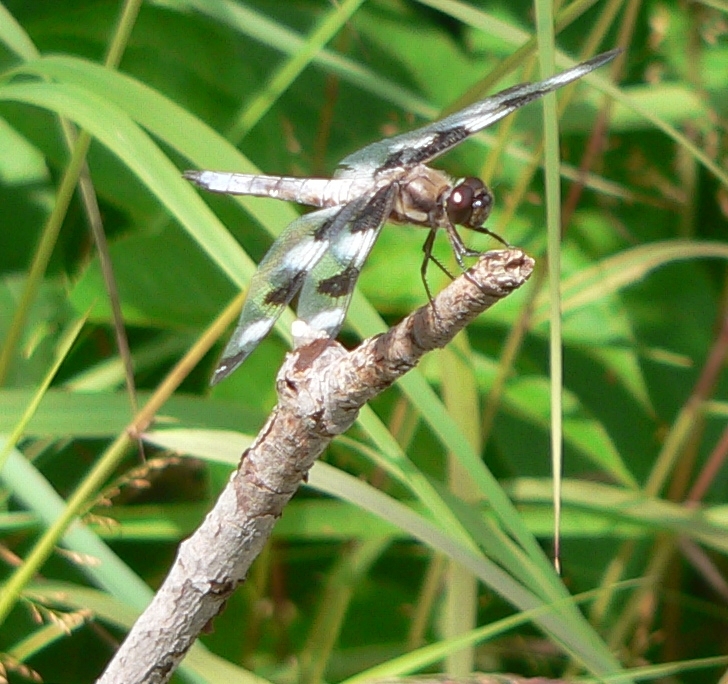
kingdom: Animalia
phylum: Arthropoda
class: Insecta
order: Odonata
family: Libellulidae
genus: Libellula
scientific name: Libellula pulchella
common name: Twelve-spotted skimmer
